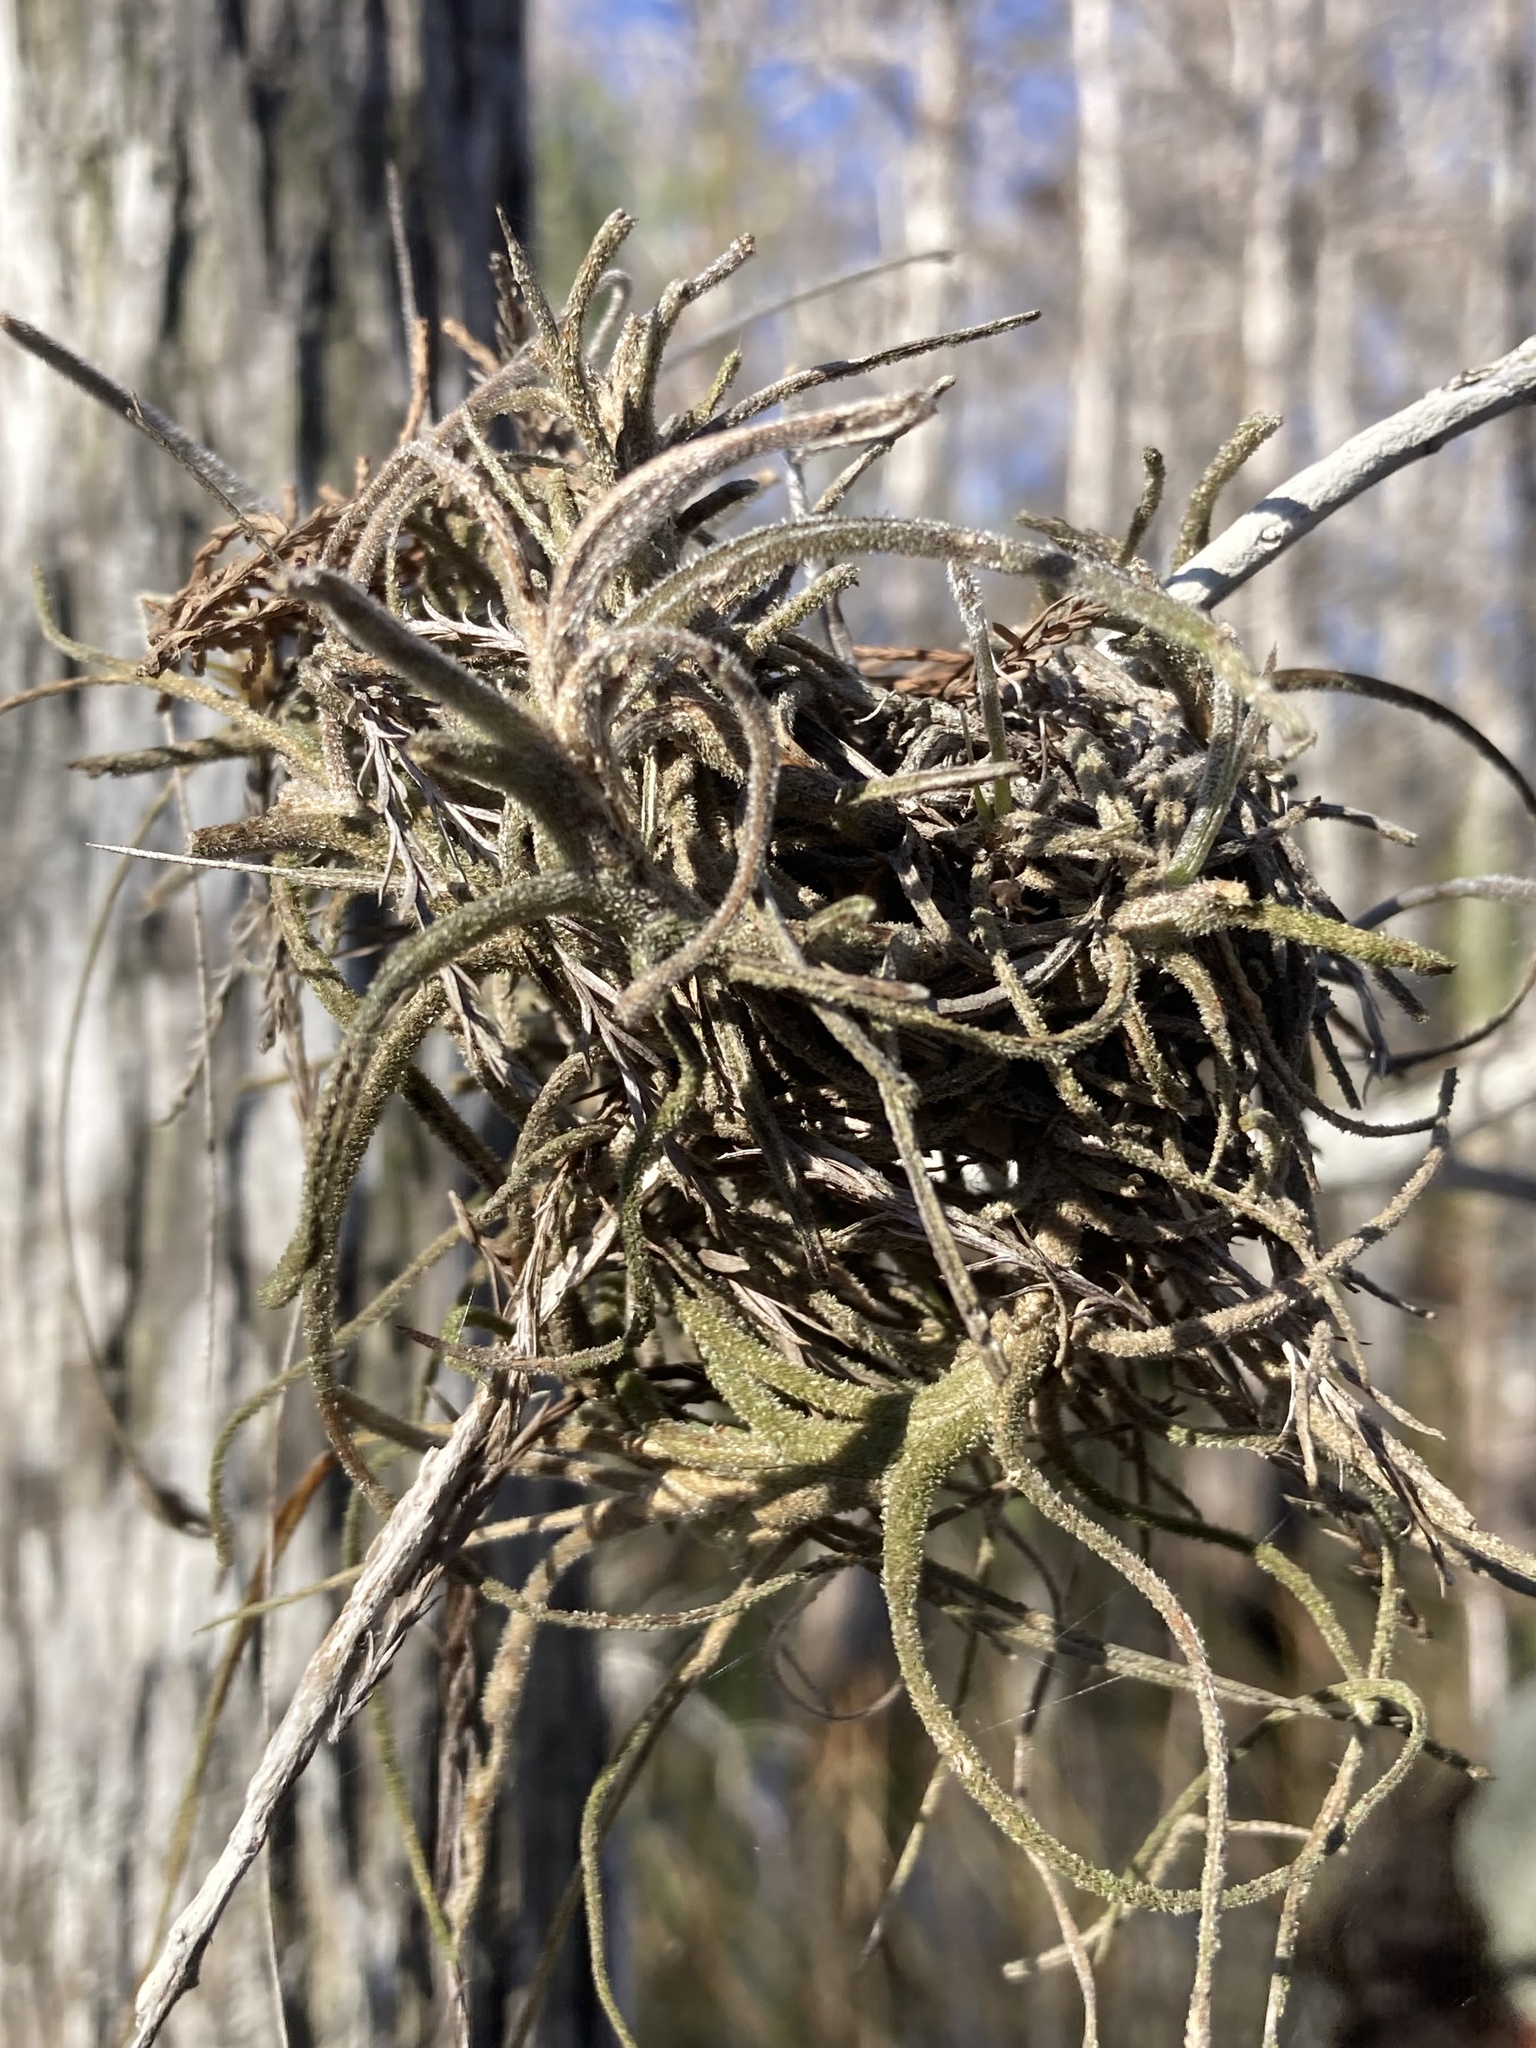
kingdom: Plantae
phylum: Tracheophyta
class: Liliopsida
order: Poales
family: Bromeliaceae
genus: Tillandsia
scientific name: Tillandsia recurvata
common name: Small ballmoss
